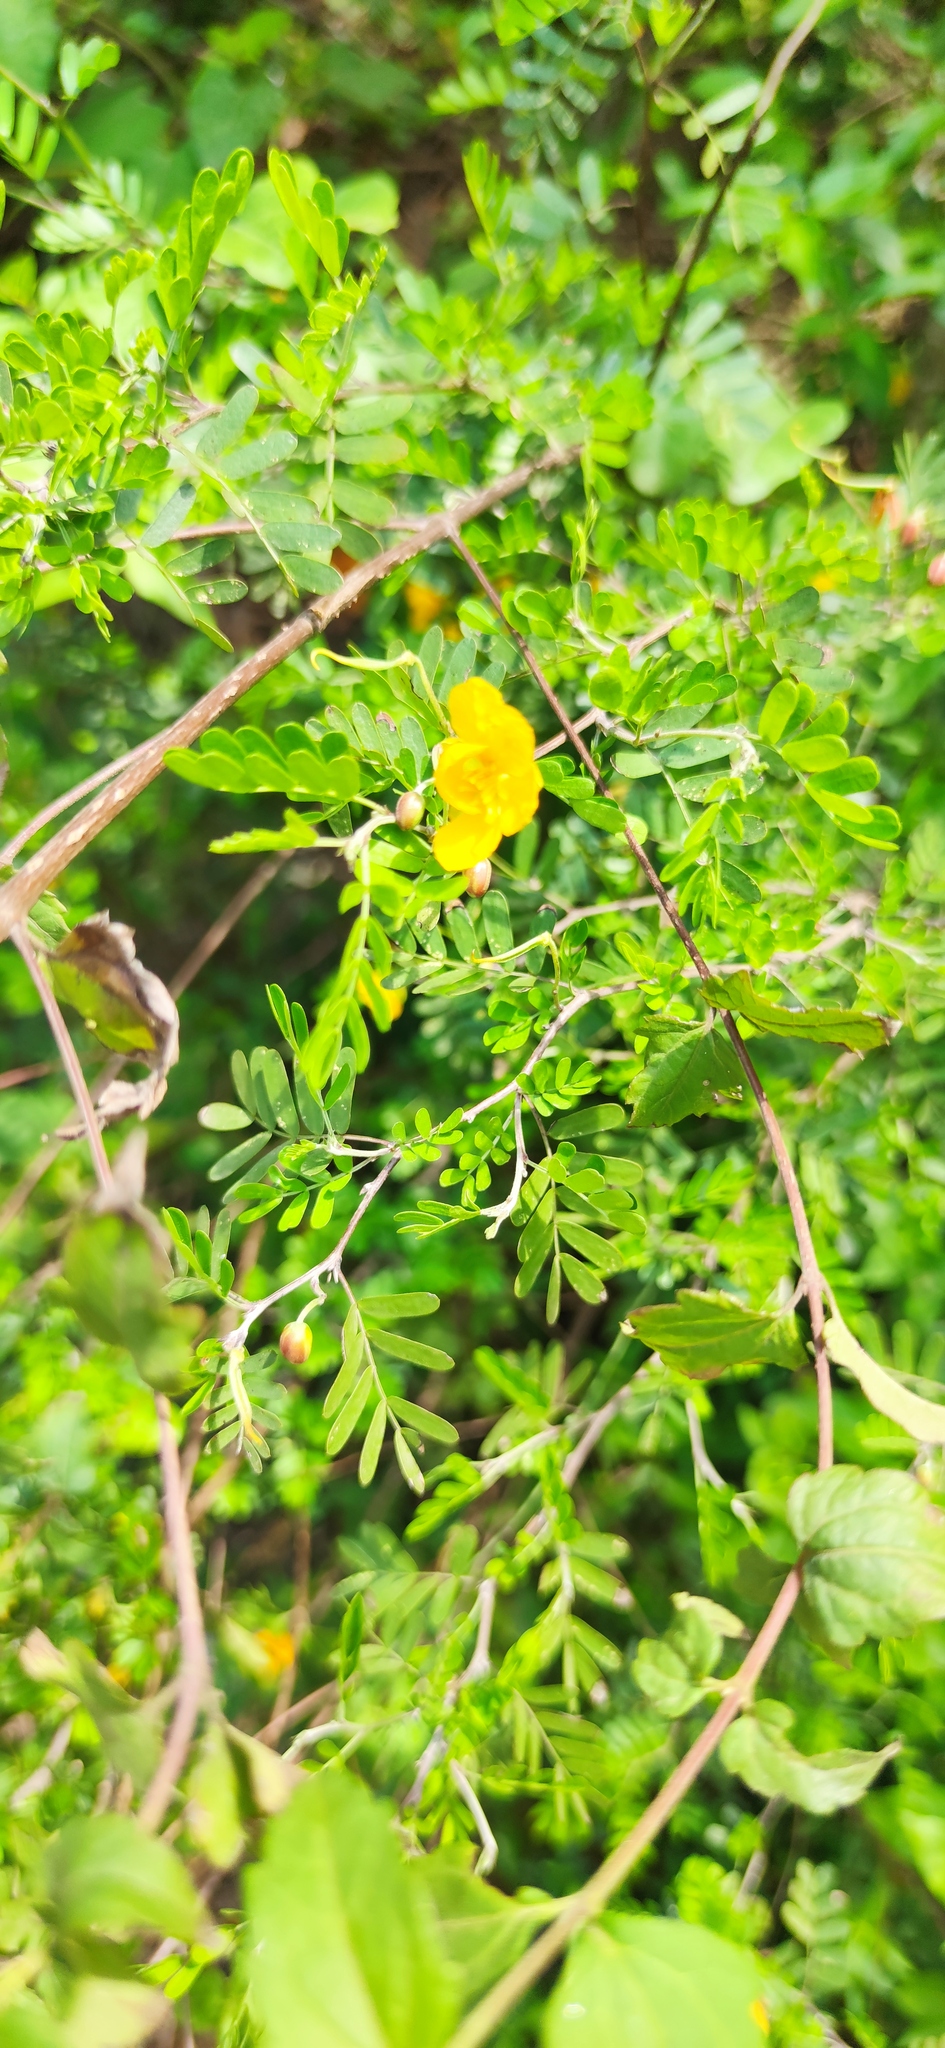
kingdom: Plantae
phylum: Tracheophyta
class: Magnoliopsida
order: Fabales
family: Fabaceae
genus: Chamaecrista
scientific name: Chamaecrista greggii
